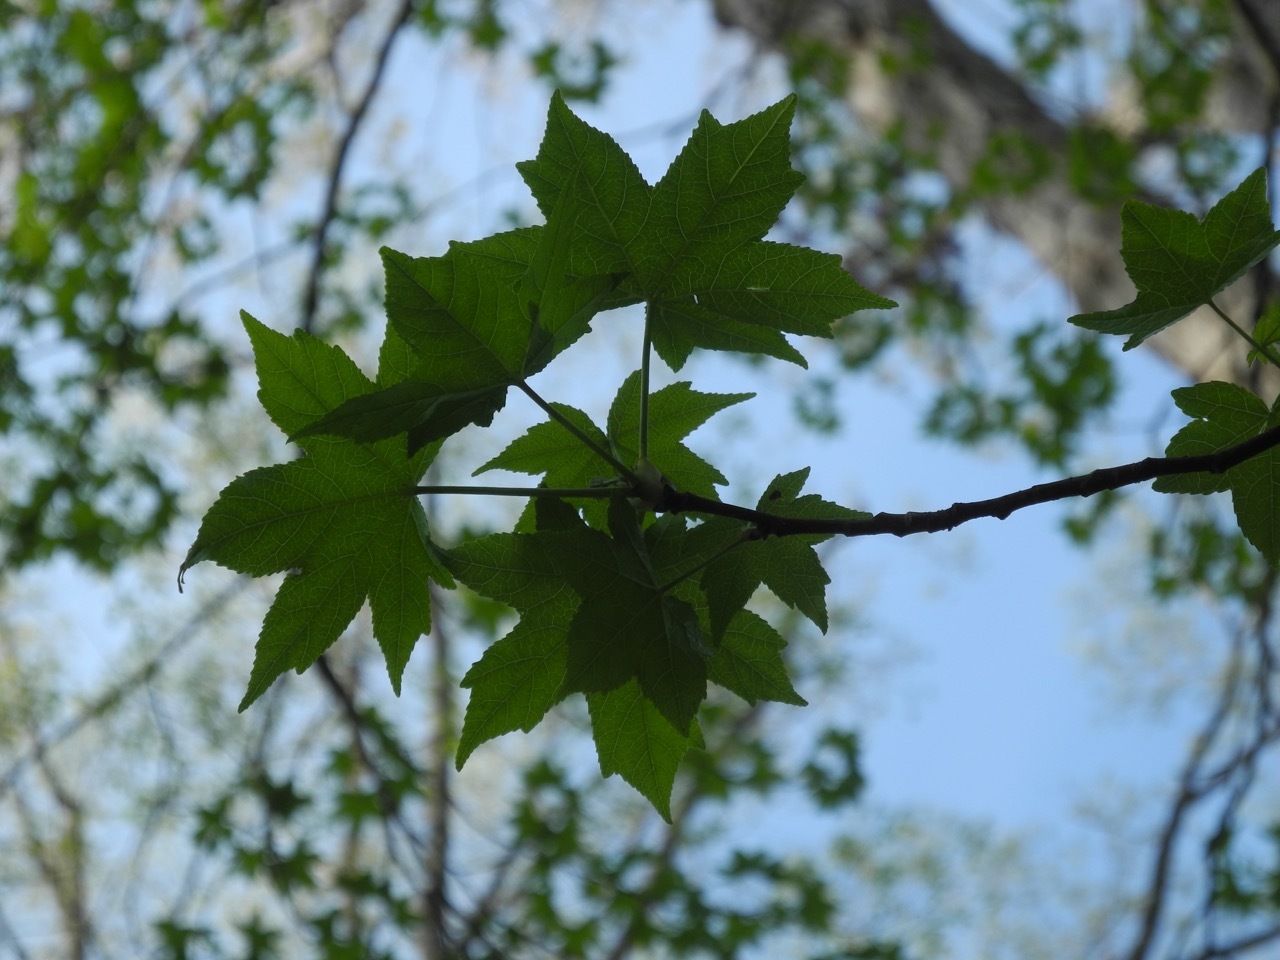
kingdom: Plantae
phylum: Tracheophyta
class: Magnoliopsida
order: Saxifragales
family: Altingiaceae
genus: Liquidambar
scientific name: Liquidambar styraciflua
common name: Sweet gum
